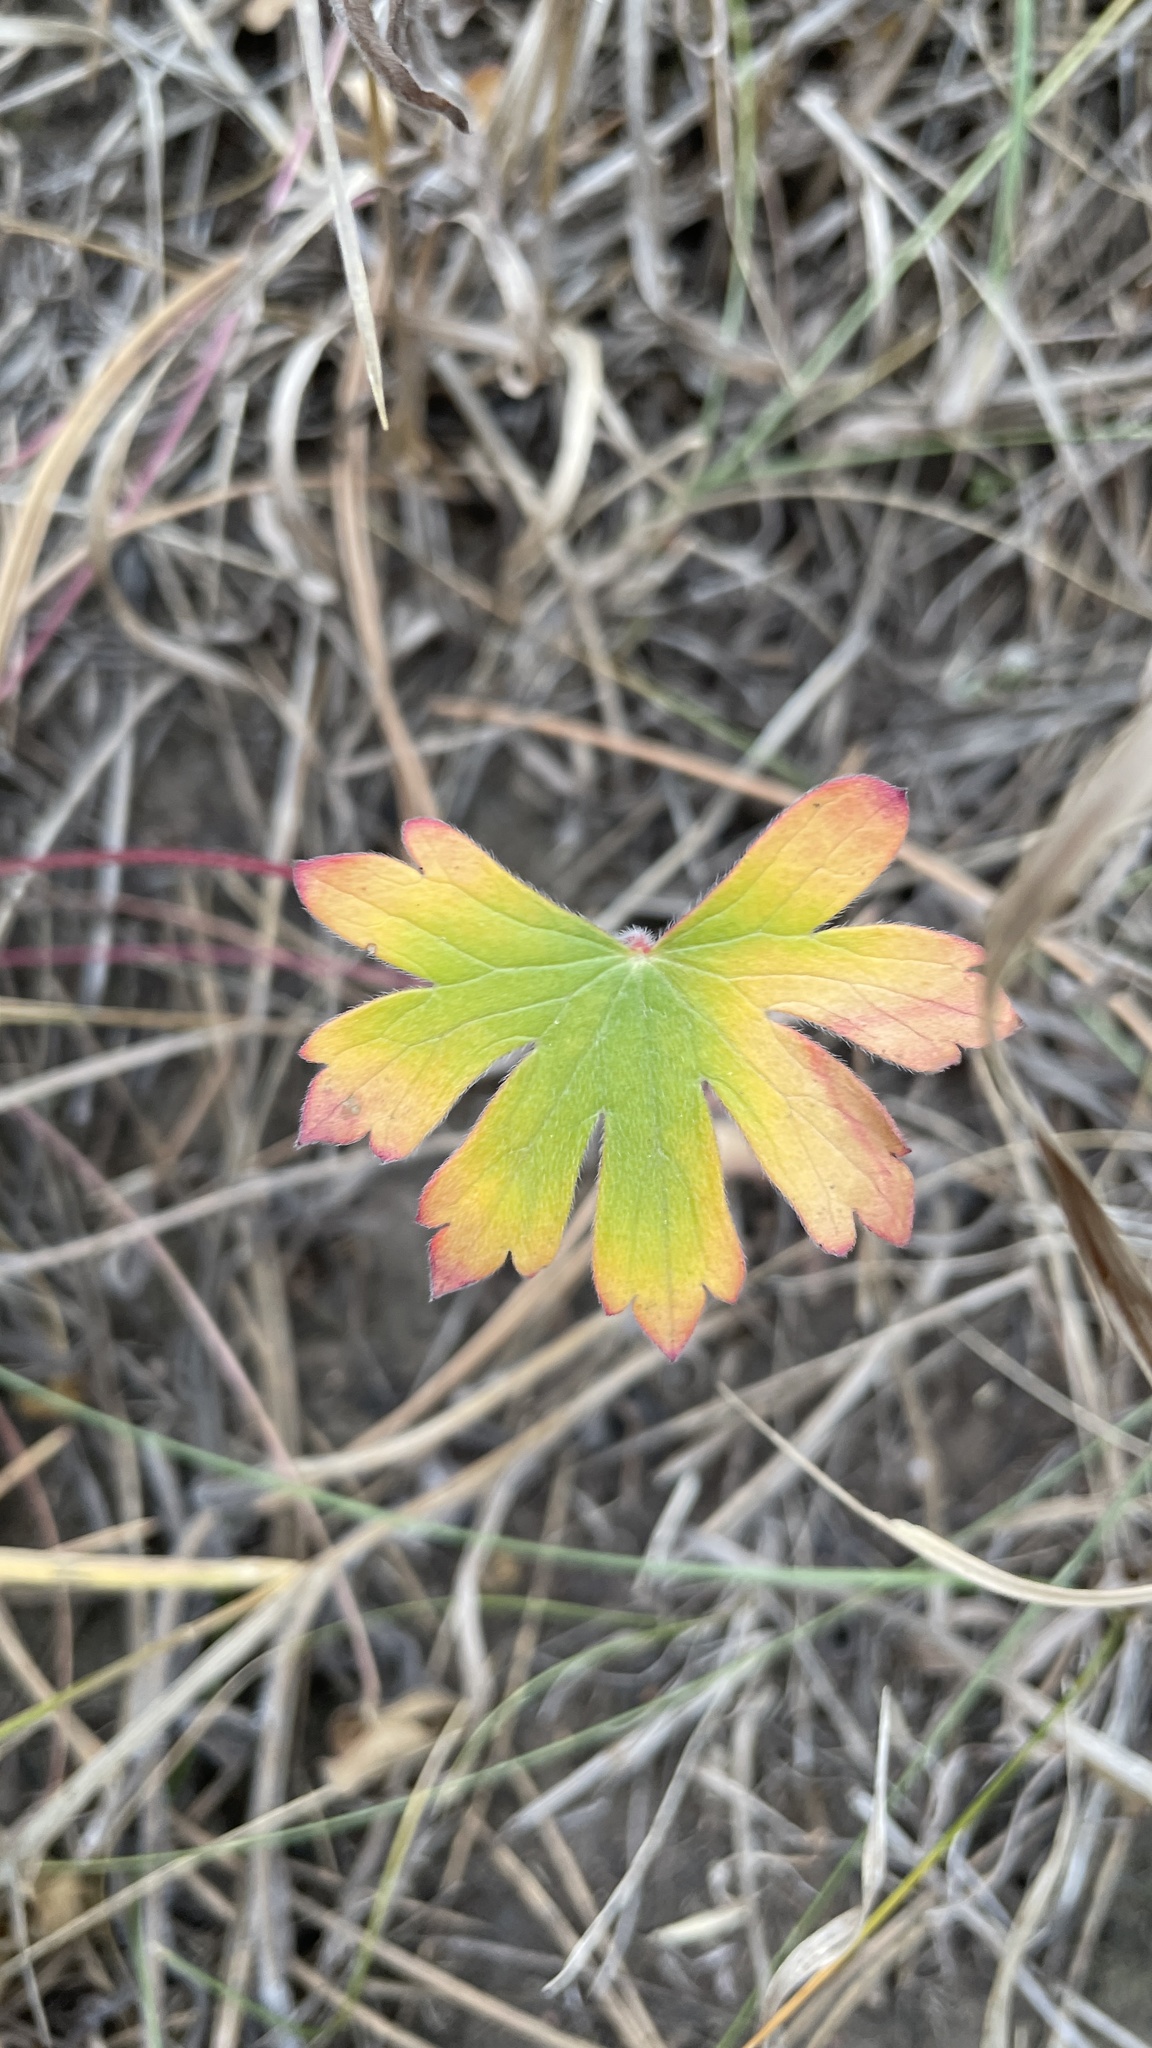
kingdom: Plantae
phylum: Tracheophyta
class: Magnoliopsida
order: Geraniales
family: Geraniaceae
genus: Geranium
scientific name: Geranium
